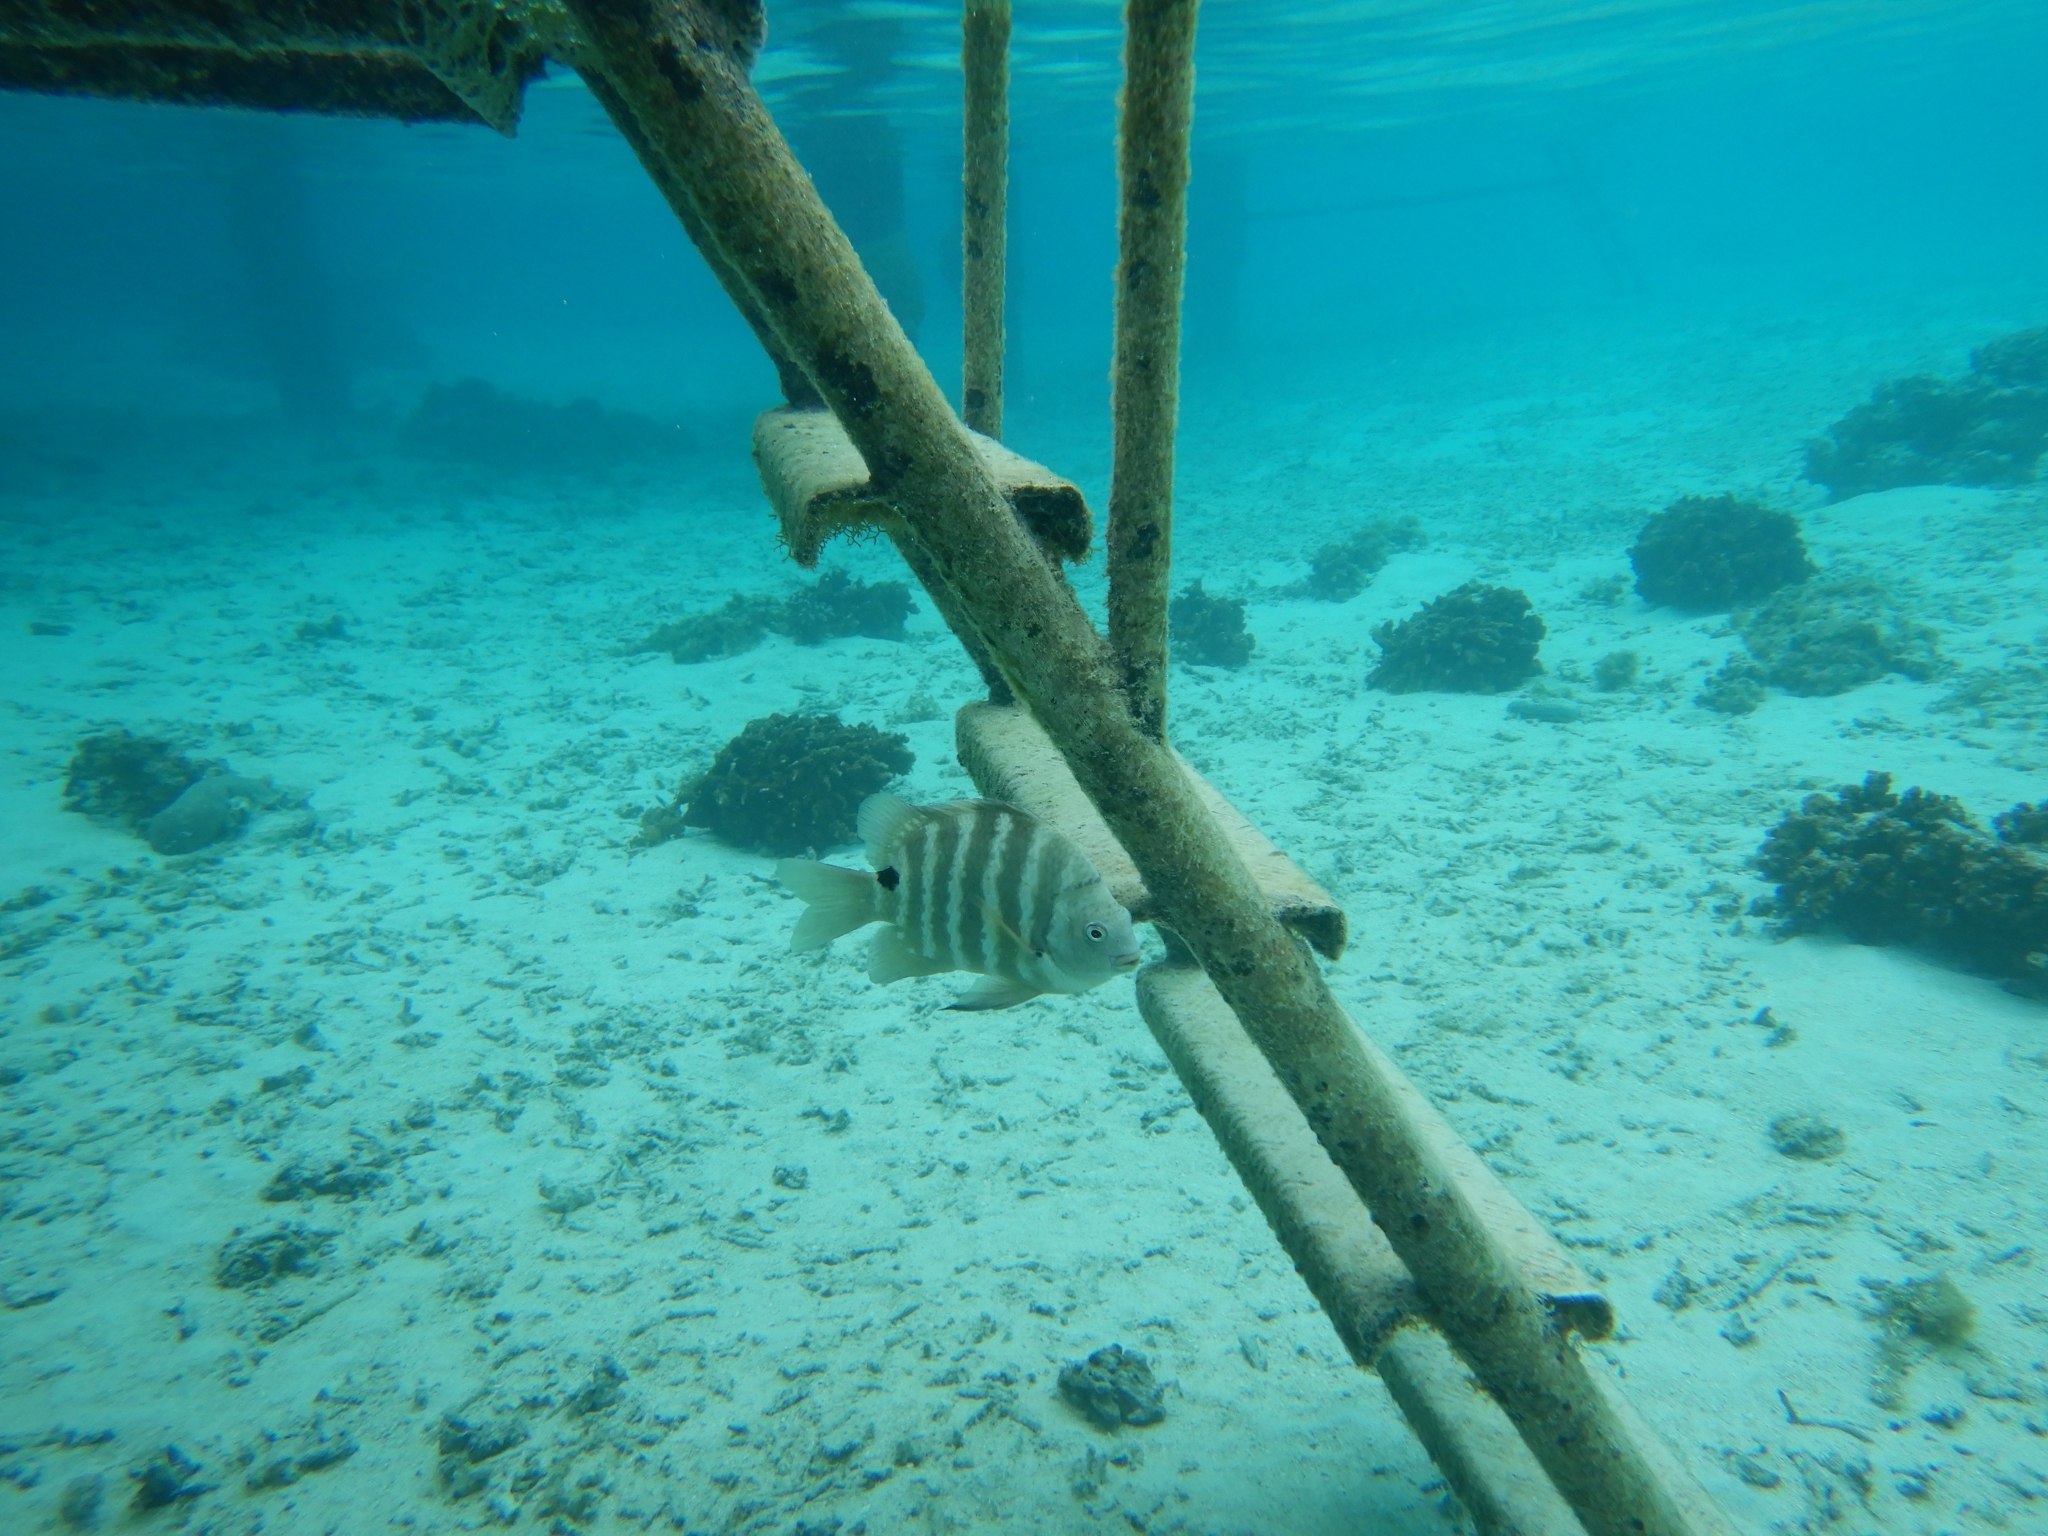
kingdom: Animalia
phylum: Chordata
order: Perciformes
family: Pomacentridae
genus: Abudefduf
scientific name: Abudefduf sordidus
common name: Blackspot sergeant
